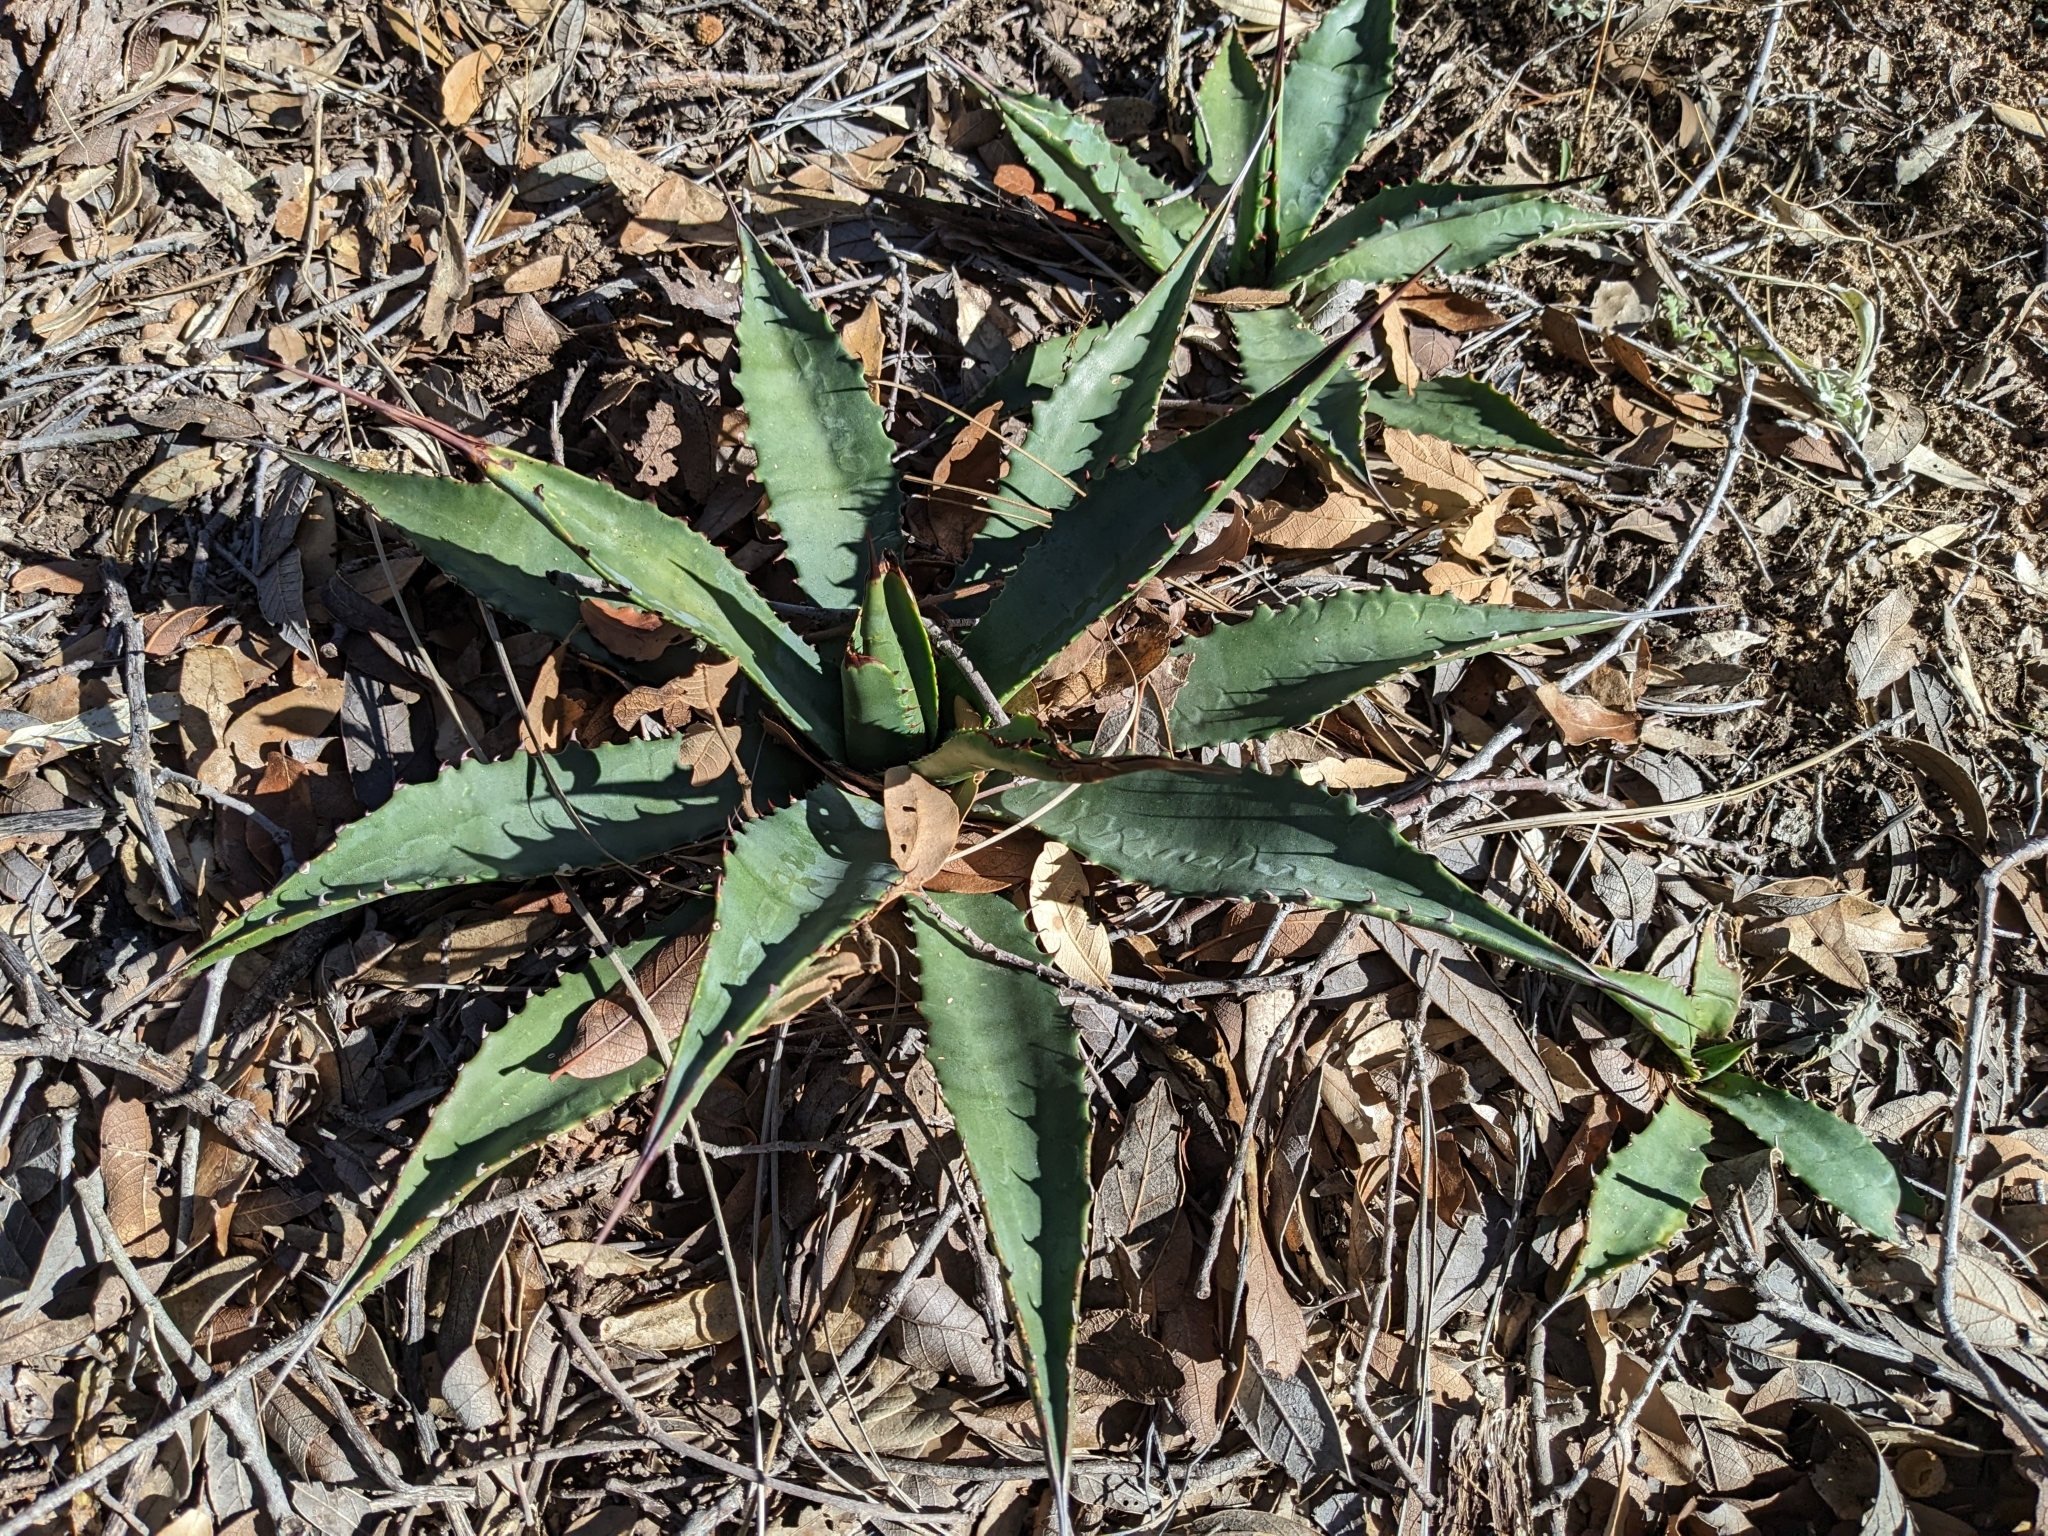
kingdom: Plantae
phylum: Tracheophyta
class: Liliopsida
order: Asparagales
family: Asparagaceae
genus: Agave
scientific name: Agave palmeri
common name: Palmer agave
